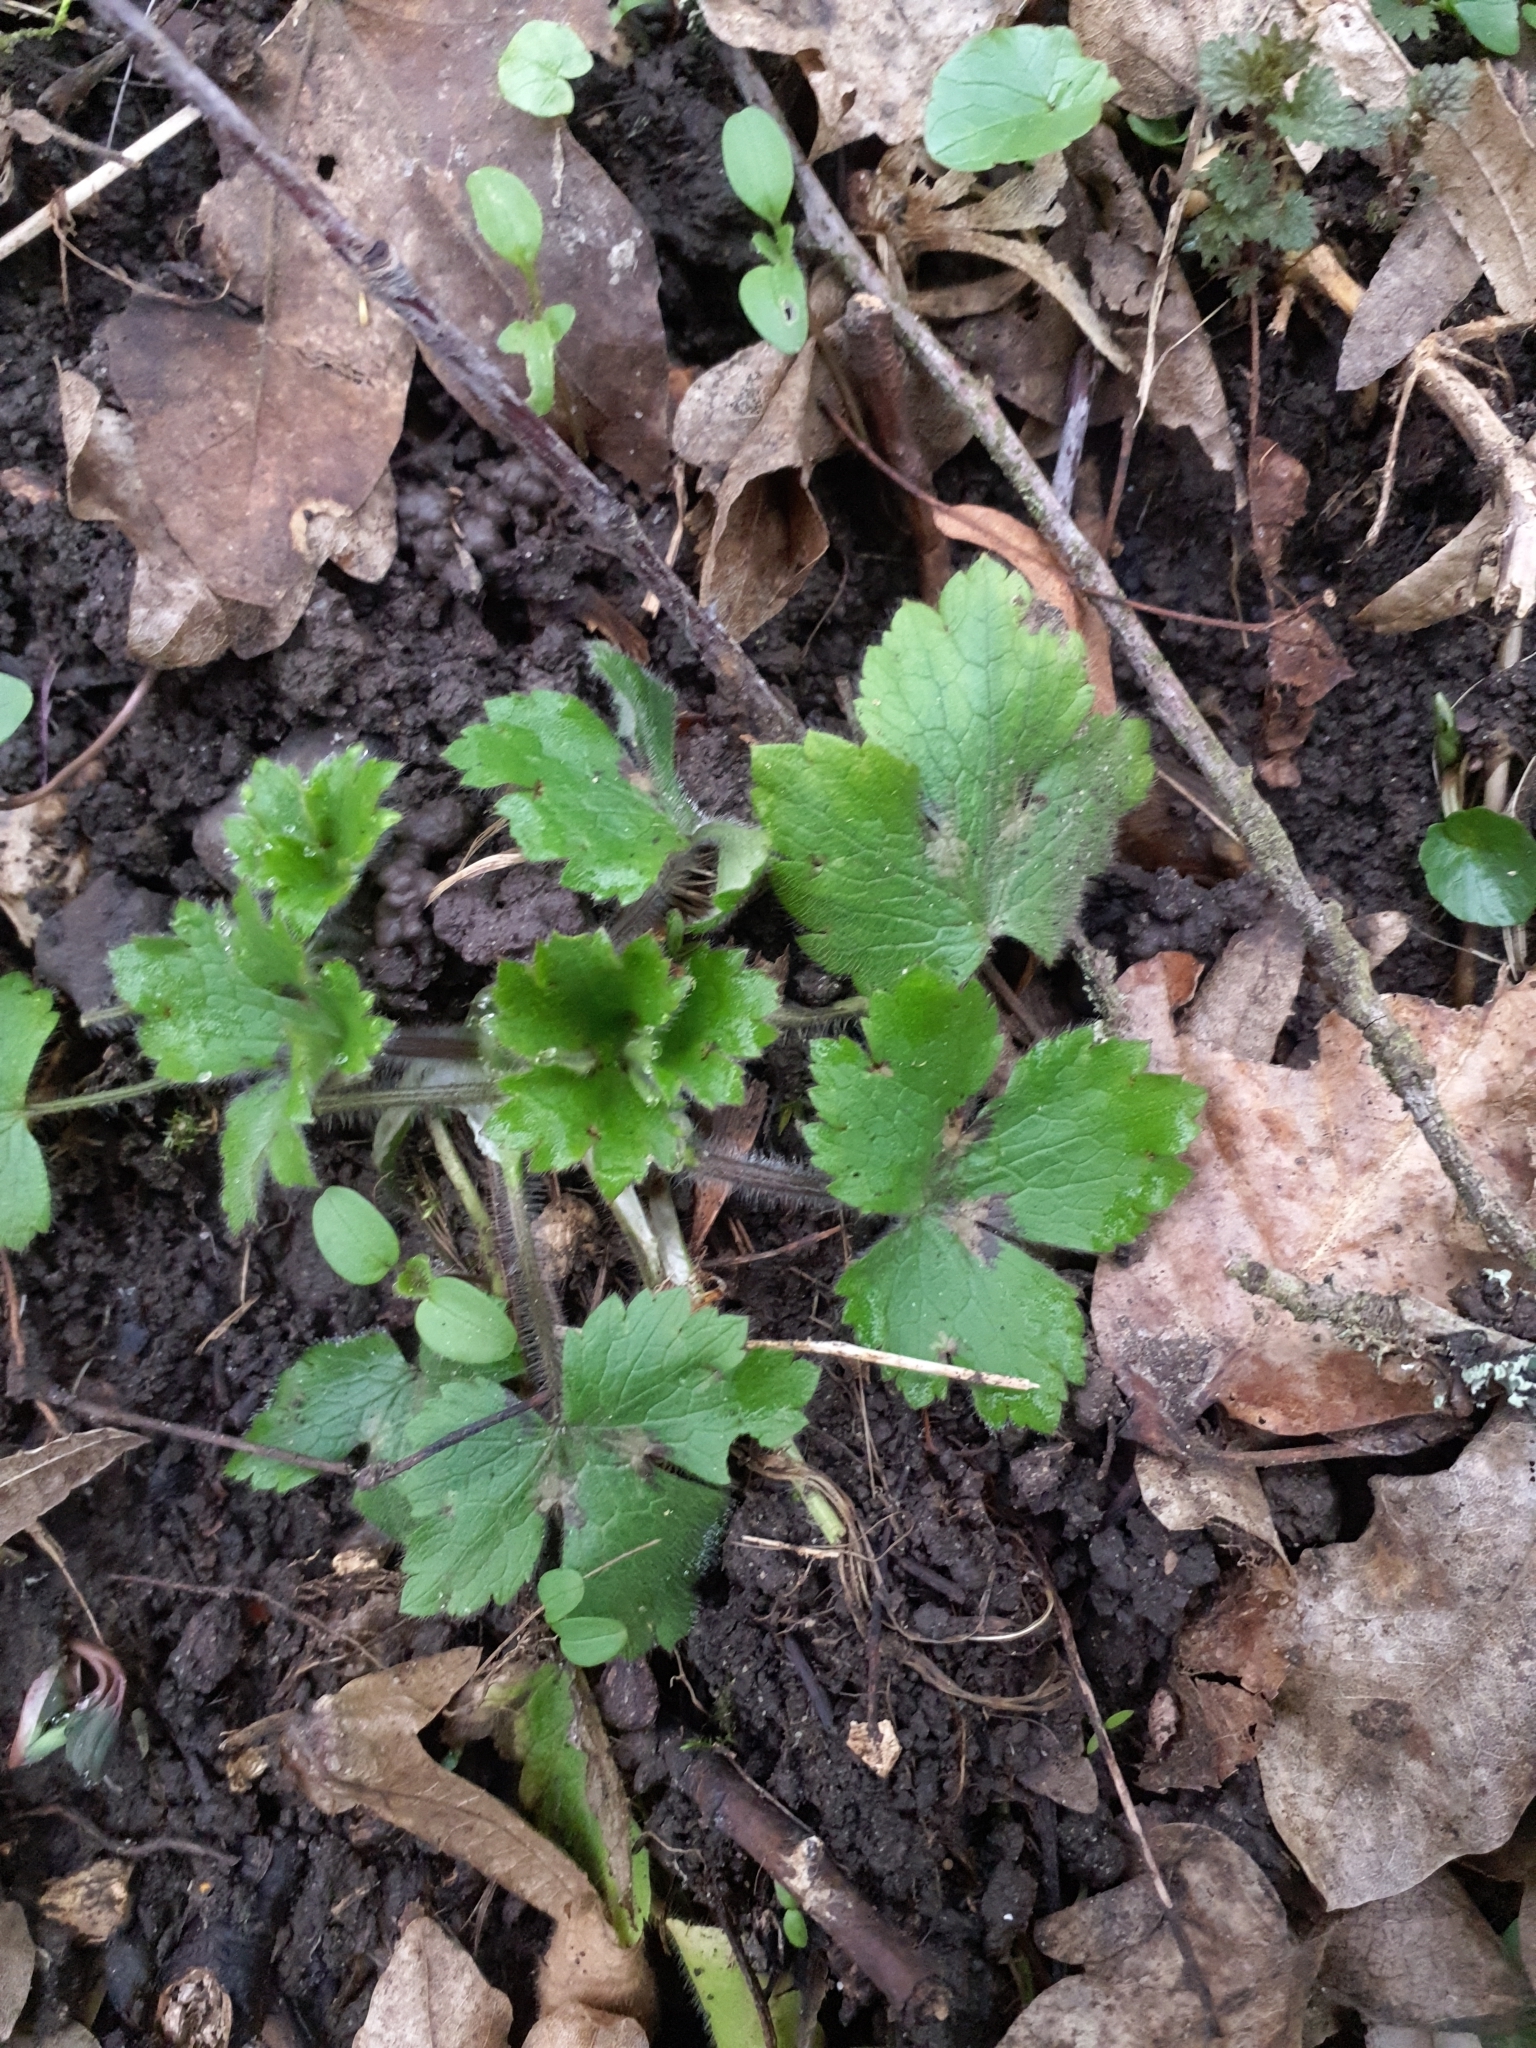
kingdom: Plantae
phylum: Tracheophyta
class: Magnoliopsida
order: Ranunculales
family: Ranunculaceae
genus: Ranunculus
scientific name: Ranunculus lanuginosus
